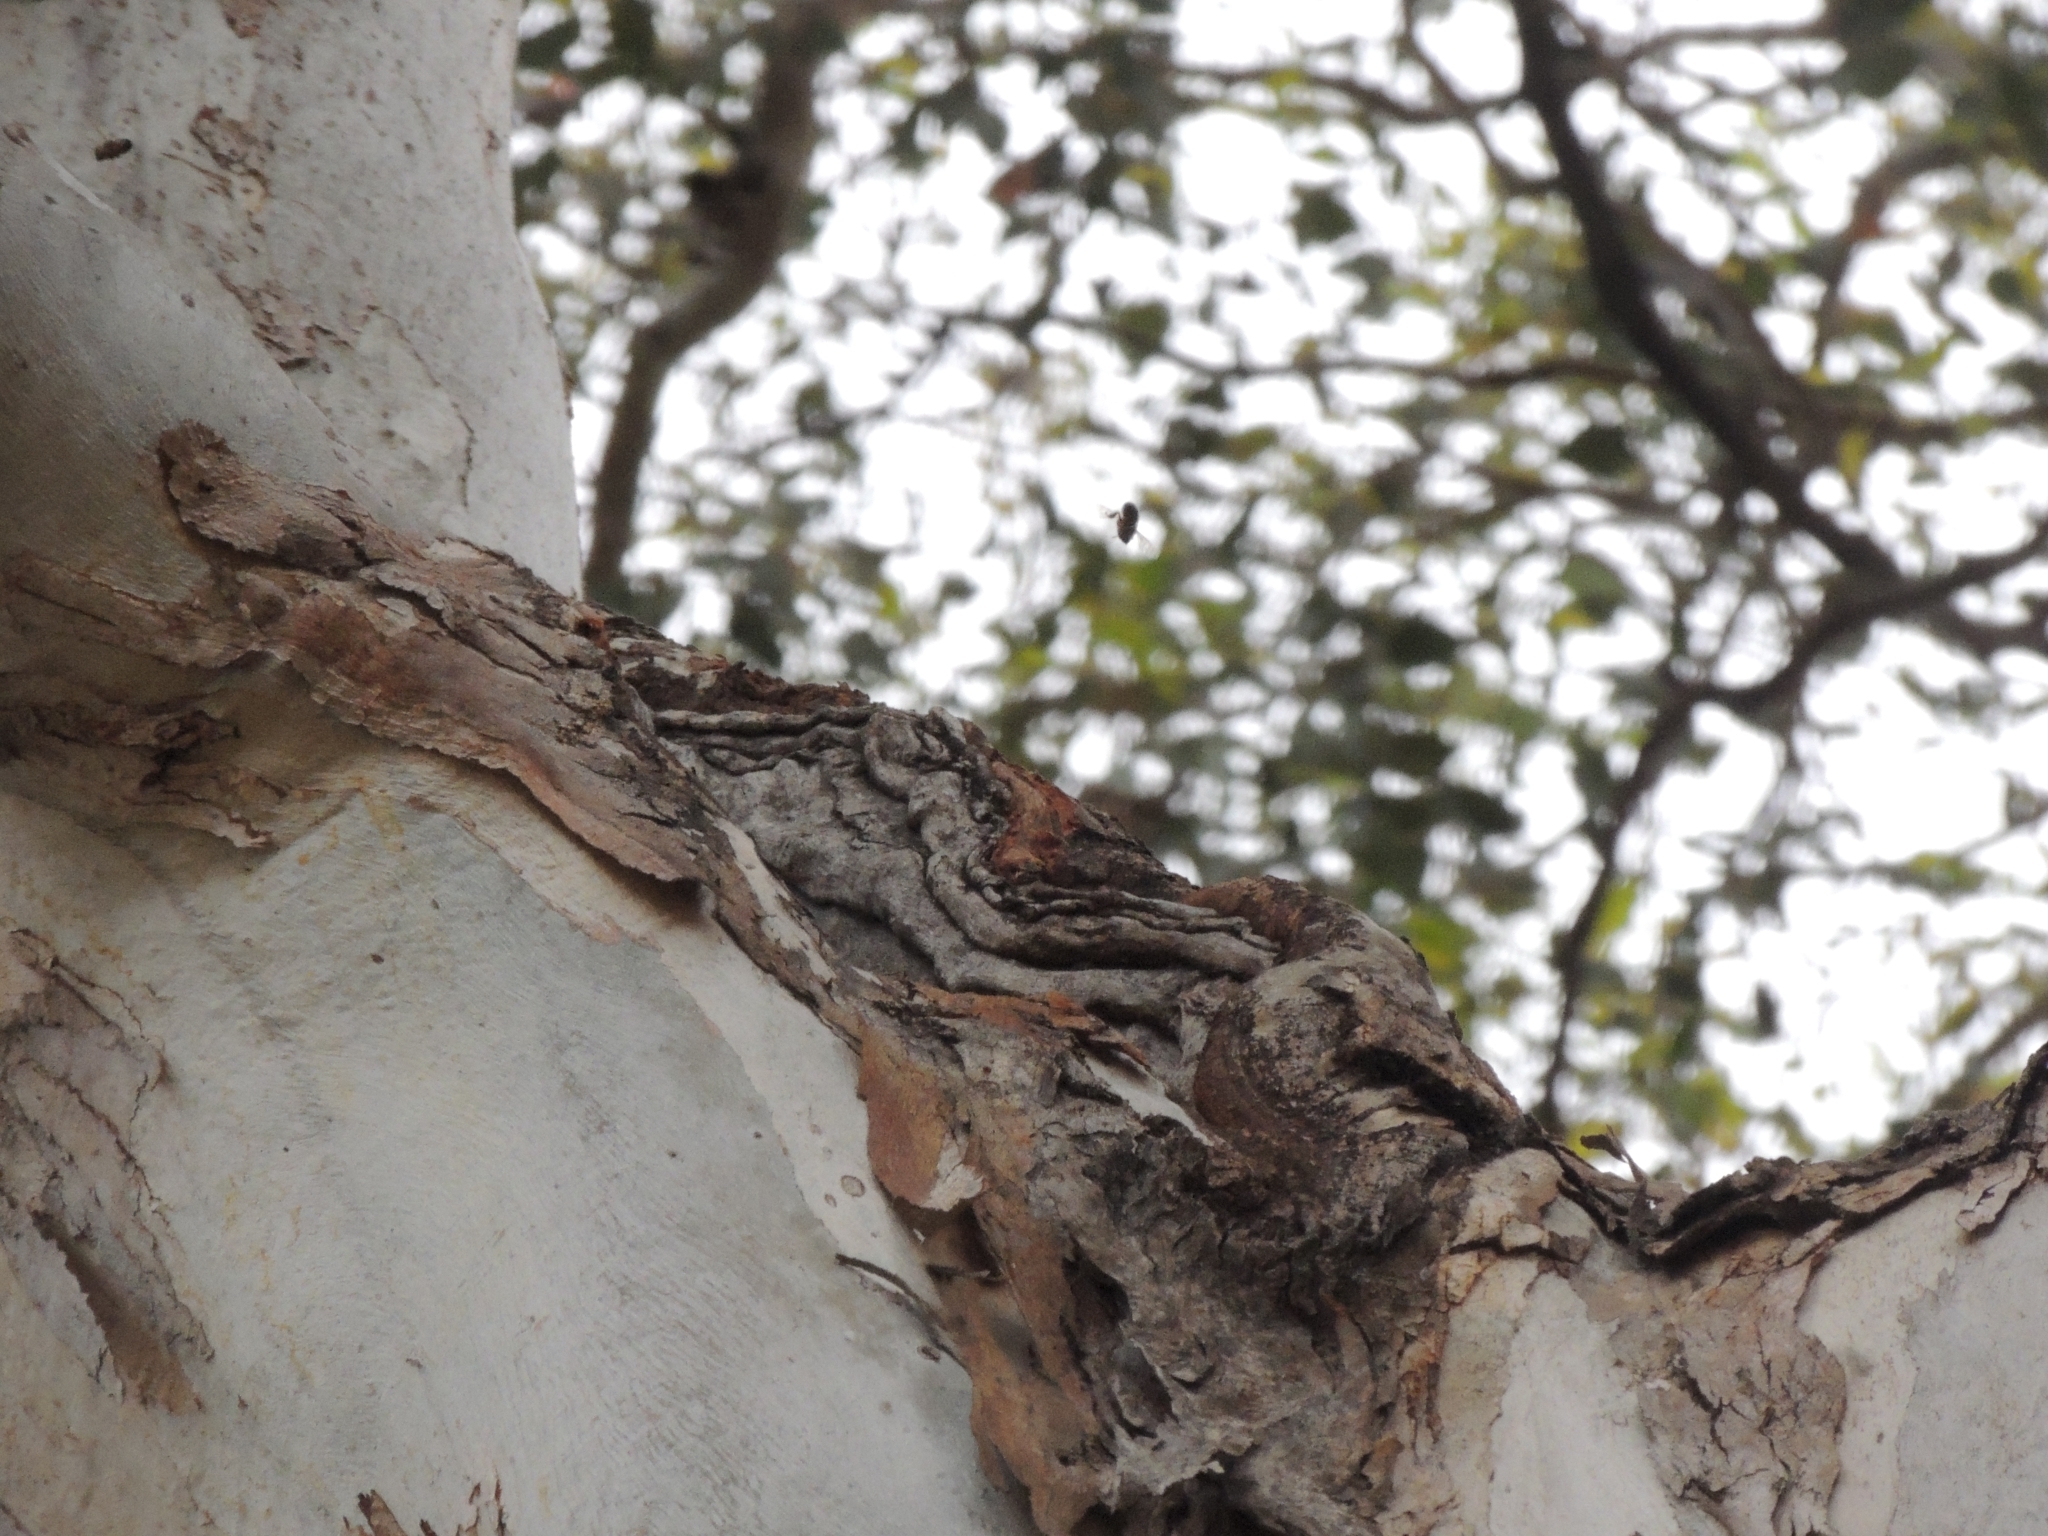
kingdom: Animalia
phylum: Arthropoda
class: Insecta
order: Hymenoptera
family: Apidae
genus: Apis
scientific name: Apis mellifera
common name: Honey bee
